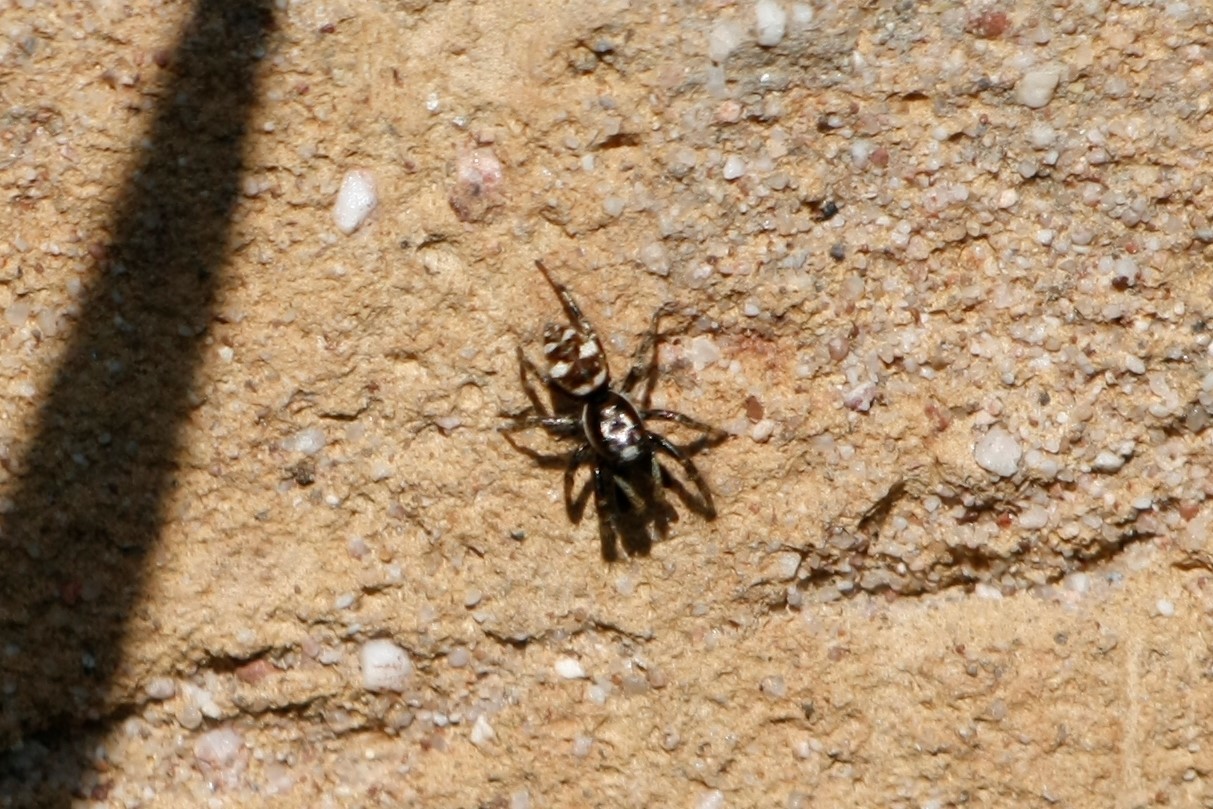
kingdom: Animalia
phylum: Arthropoda
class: Arachnida
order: Araneae
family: Salticidae
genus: Salticus
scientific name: Salticus scenicus
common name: Zebra jumper
